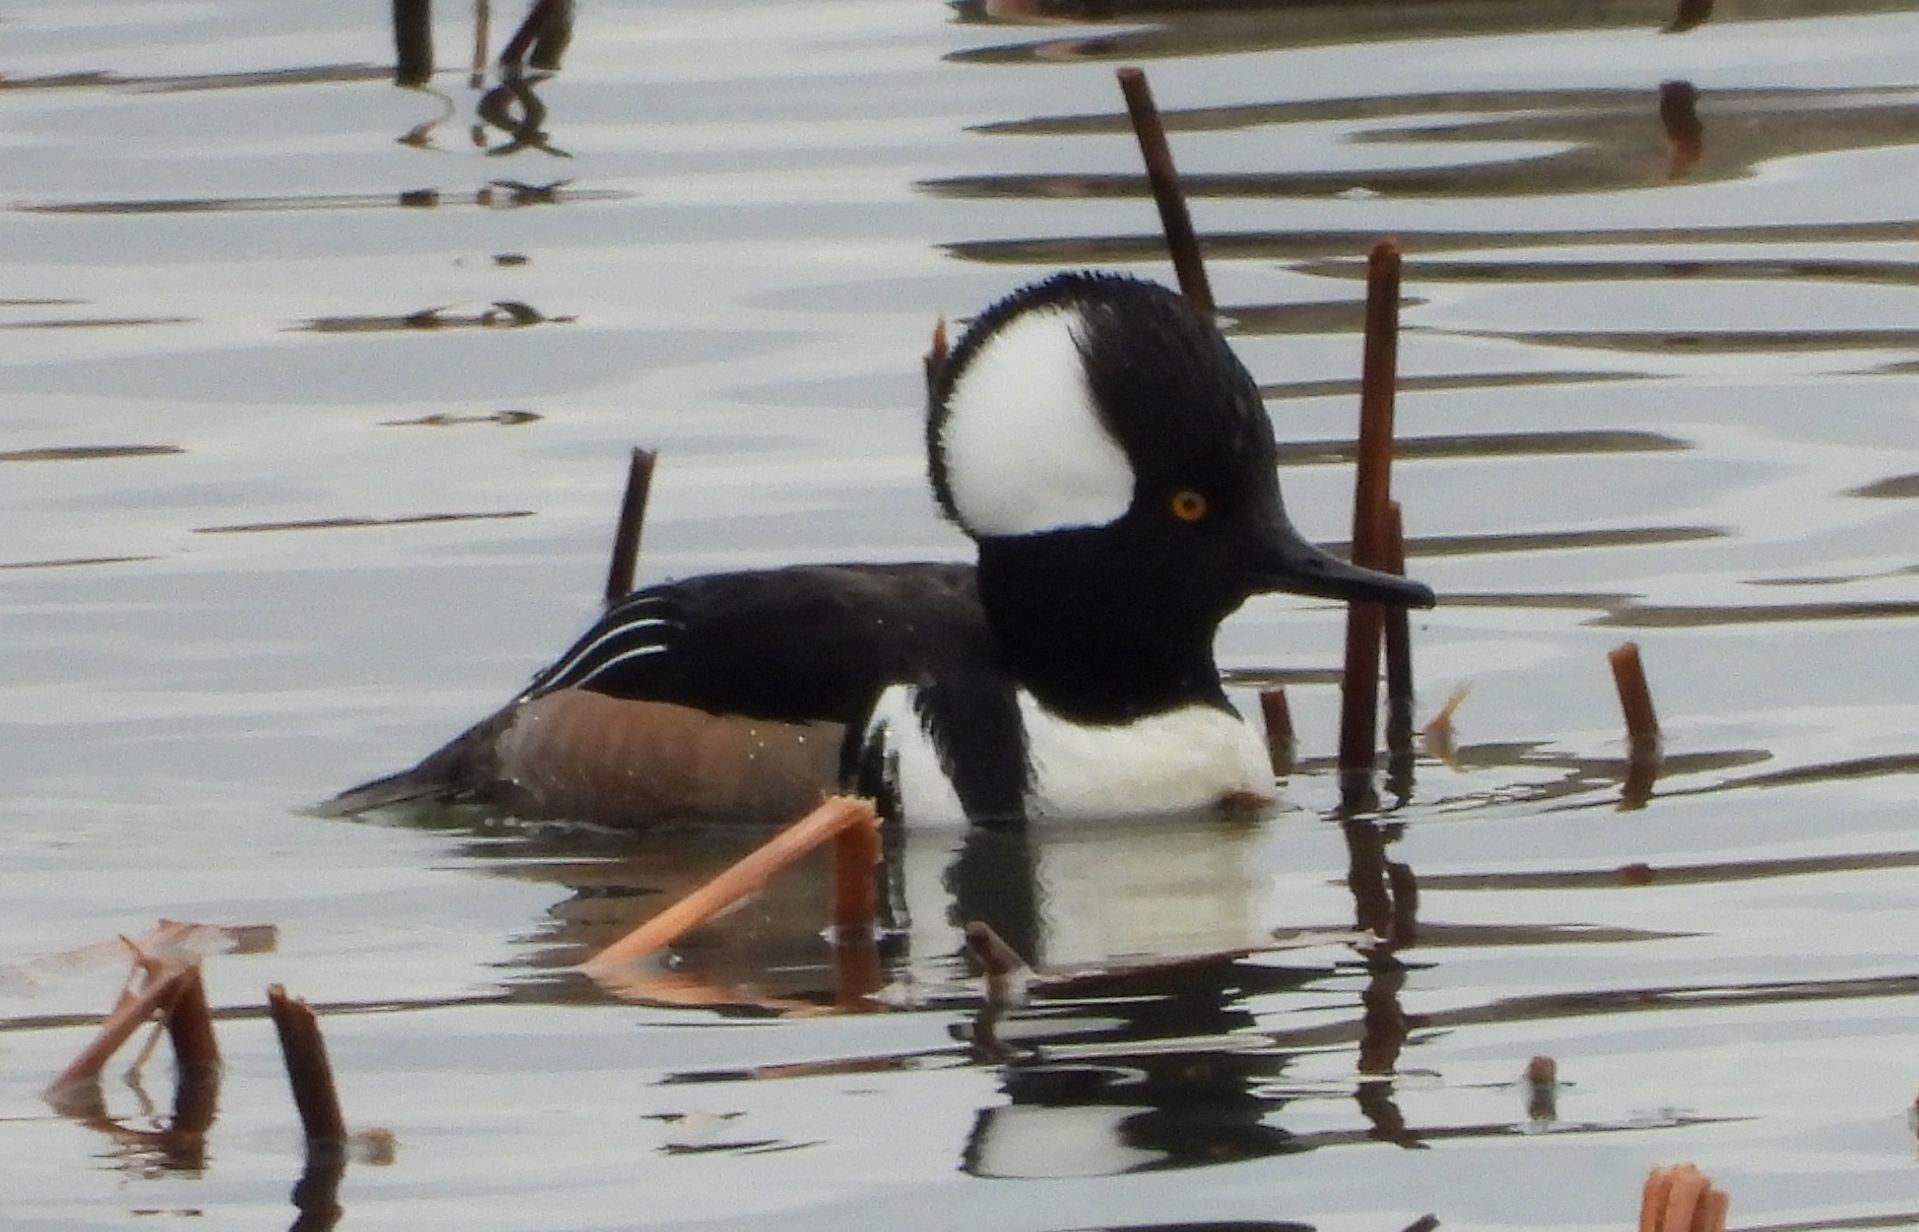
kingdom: Animalia
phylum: Chordata
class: Aves
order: Anseriformes
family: Anatidae
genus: Lophodytes
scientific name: Lophodytes cucullatus
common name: Hooded merganser
